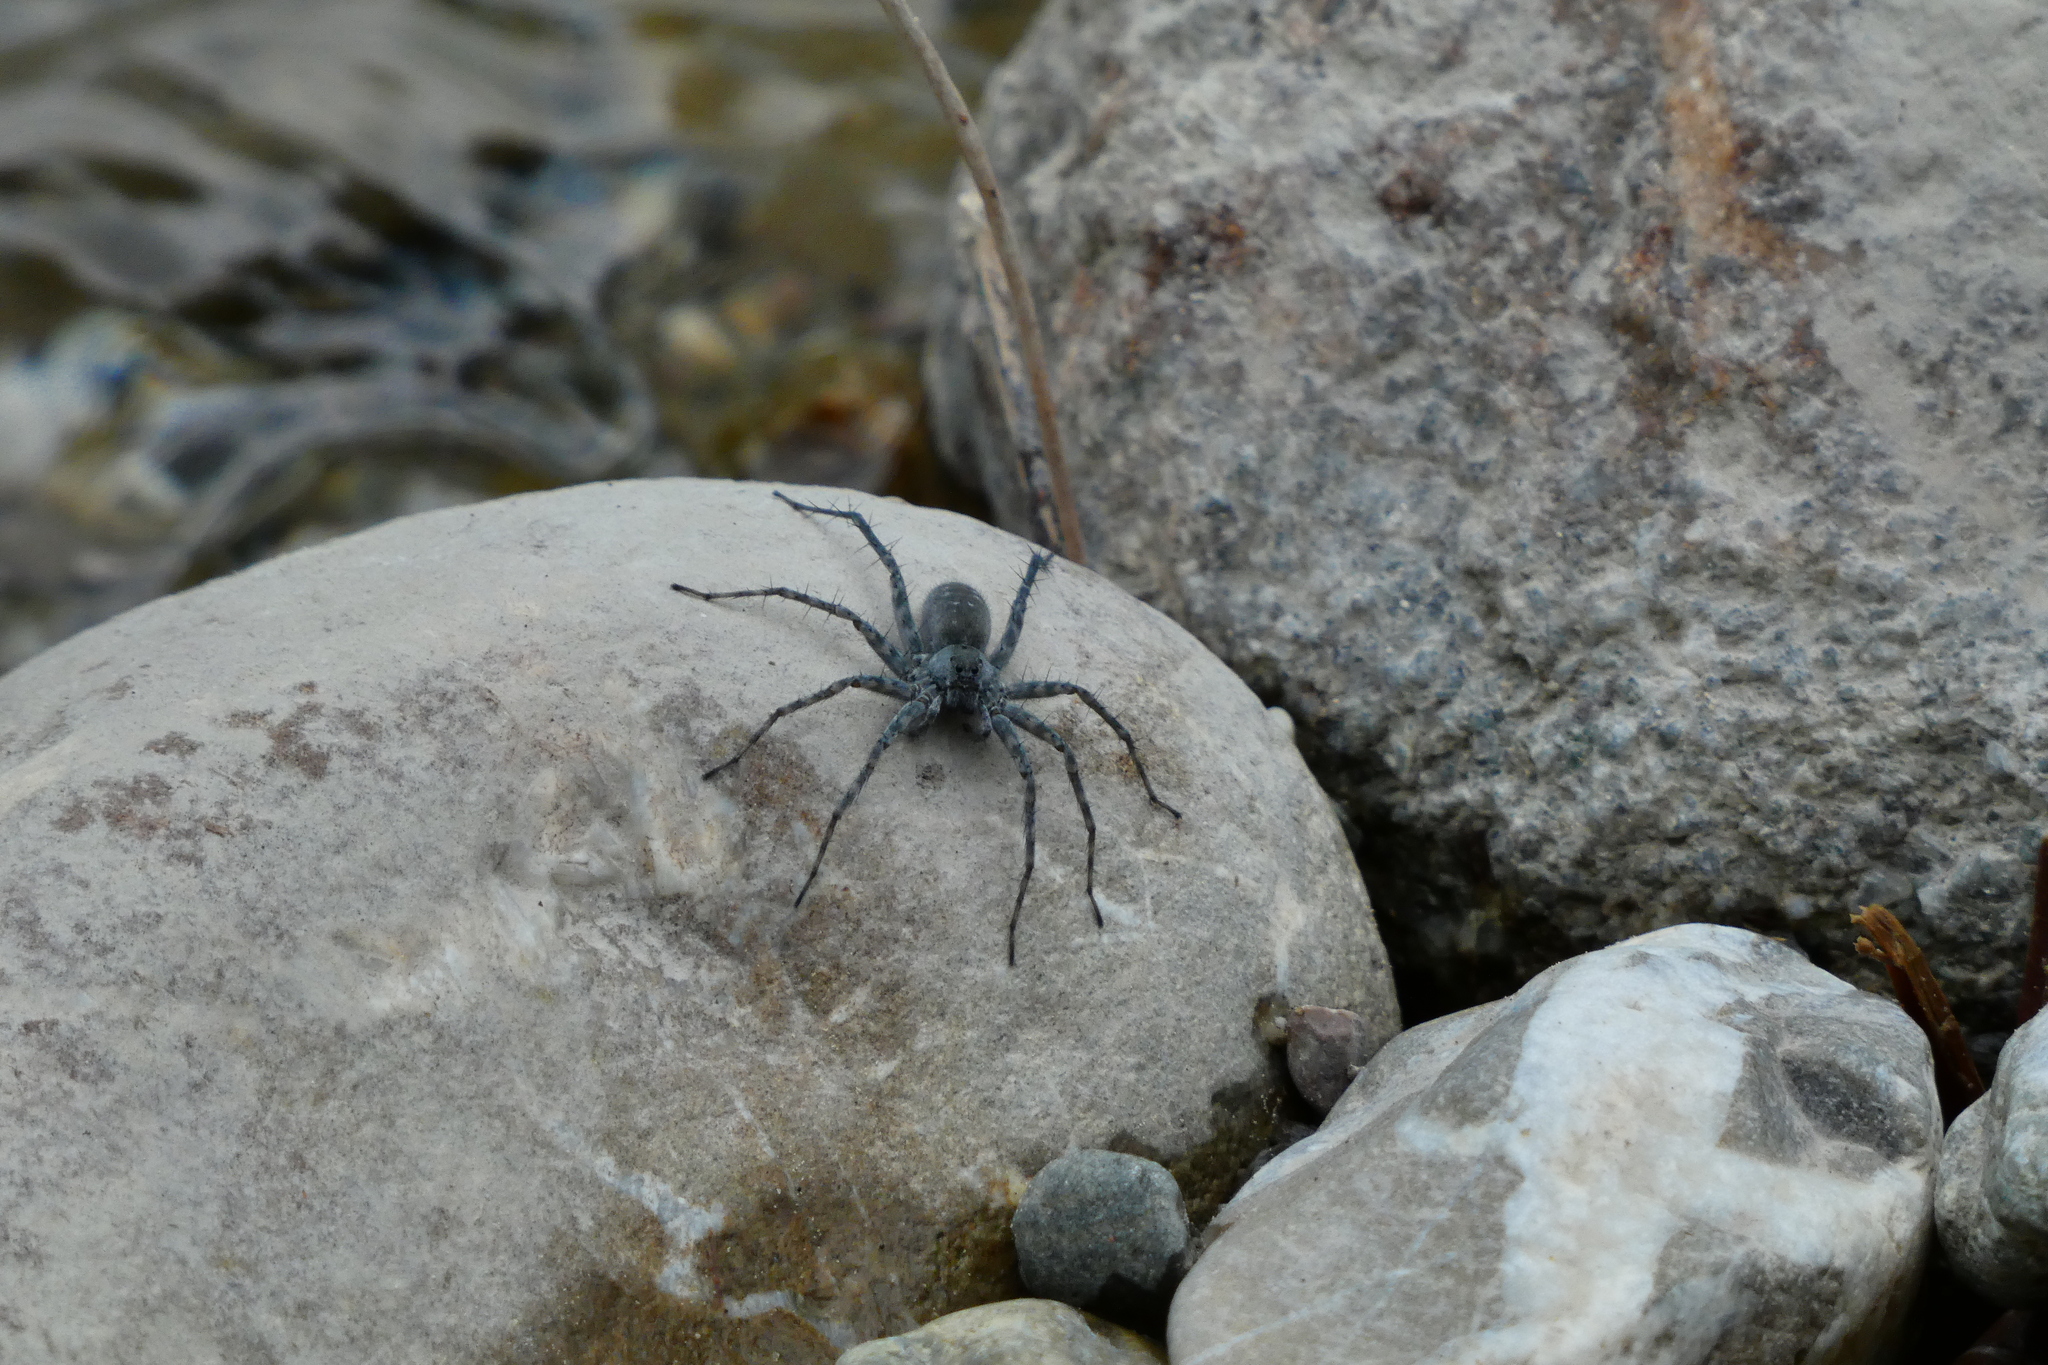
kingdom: Animalia
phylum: Arthropoda
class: Arachnida
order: Araneae
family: Lycosidae
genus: Pardosa
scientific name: Pardosa wagleri
